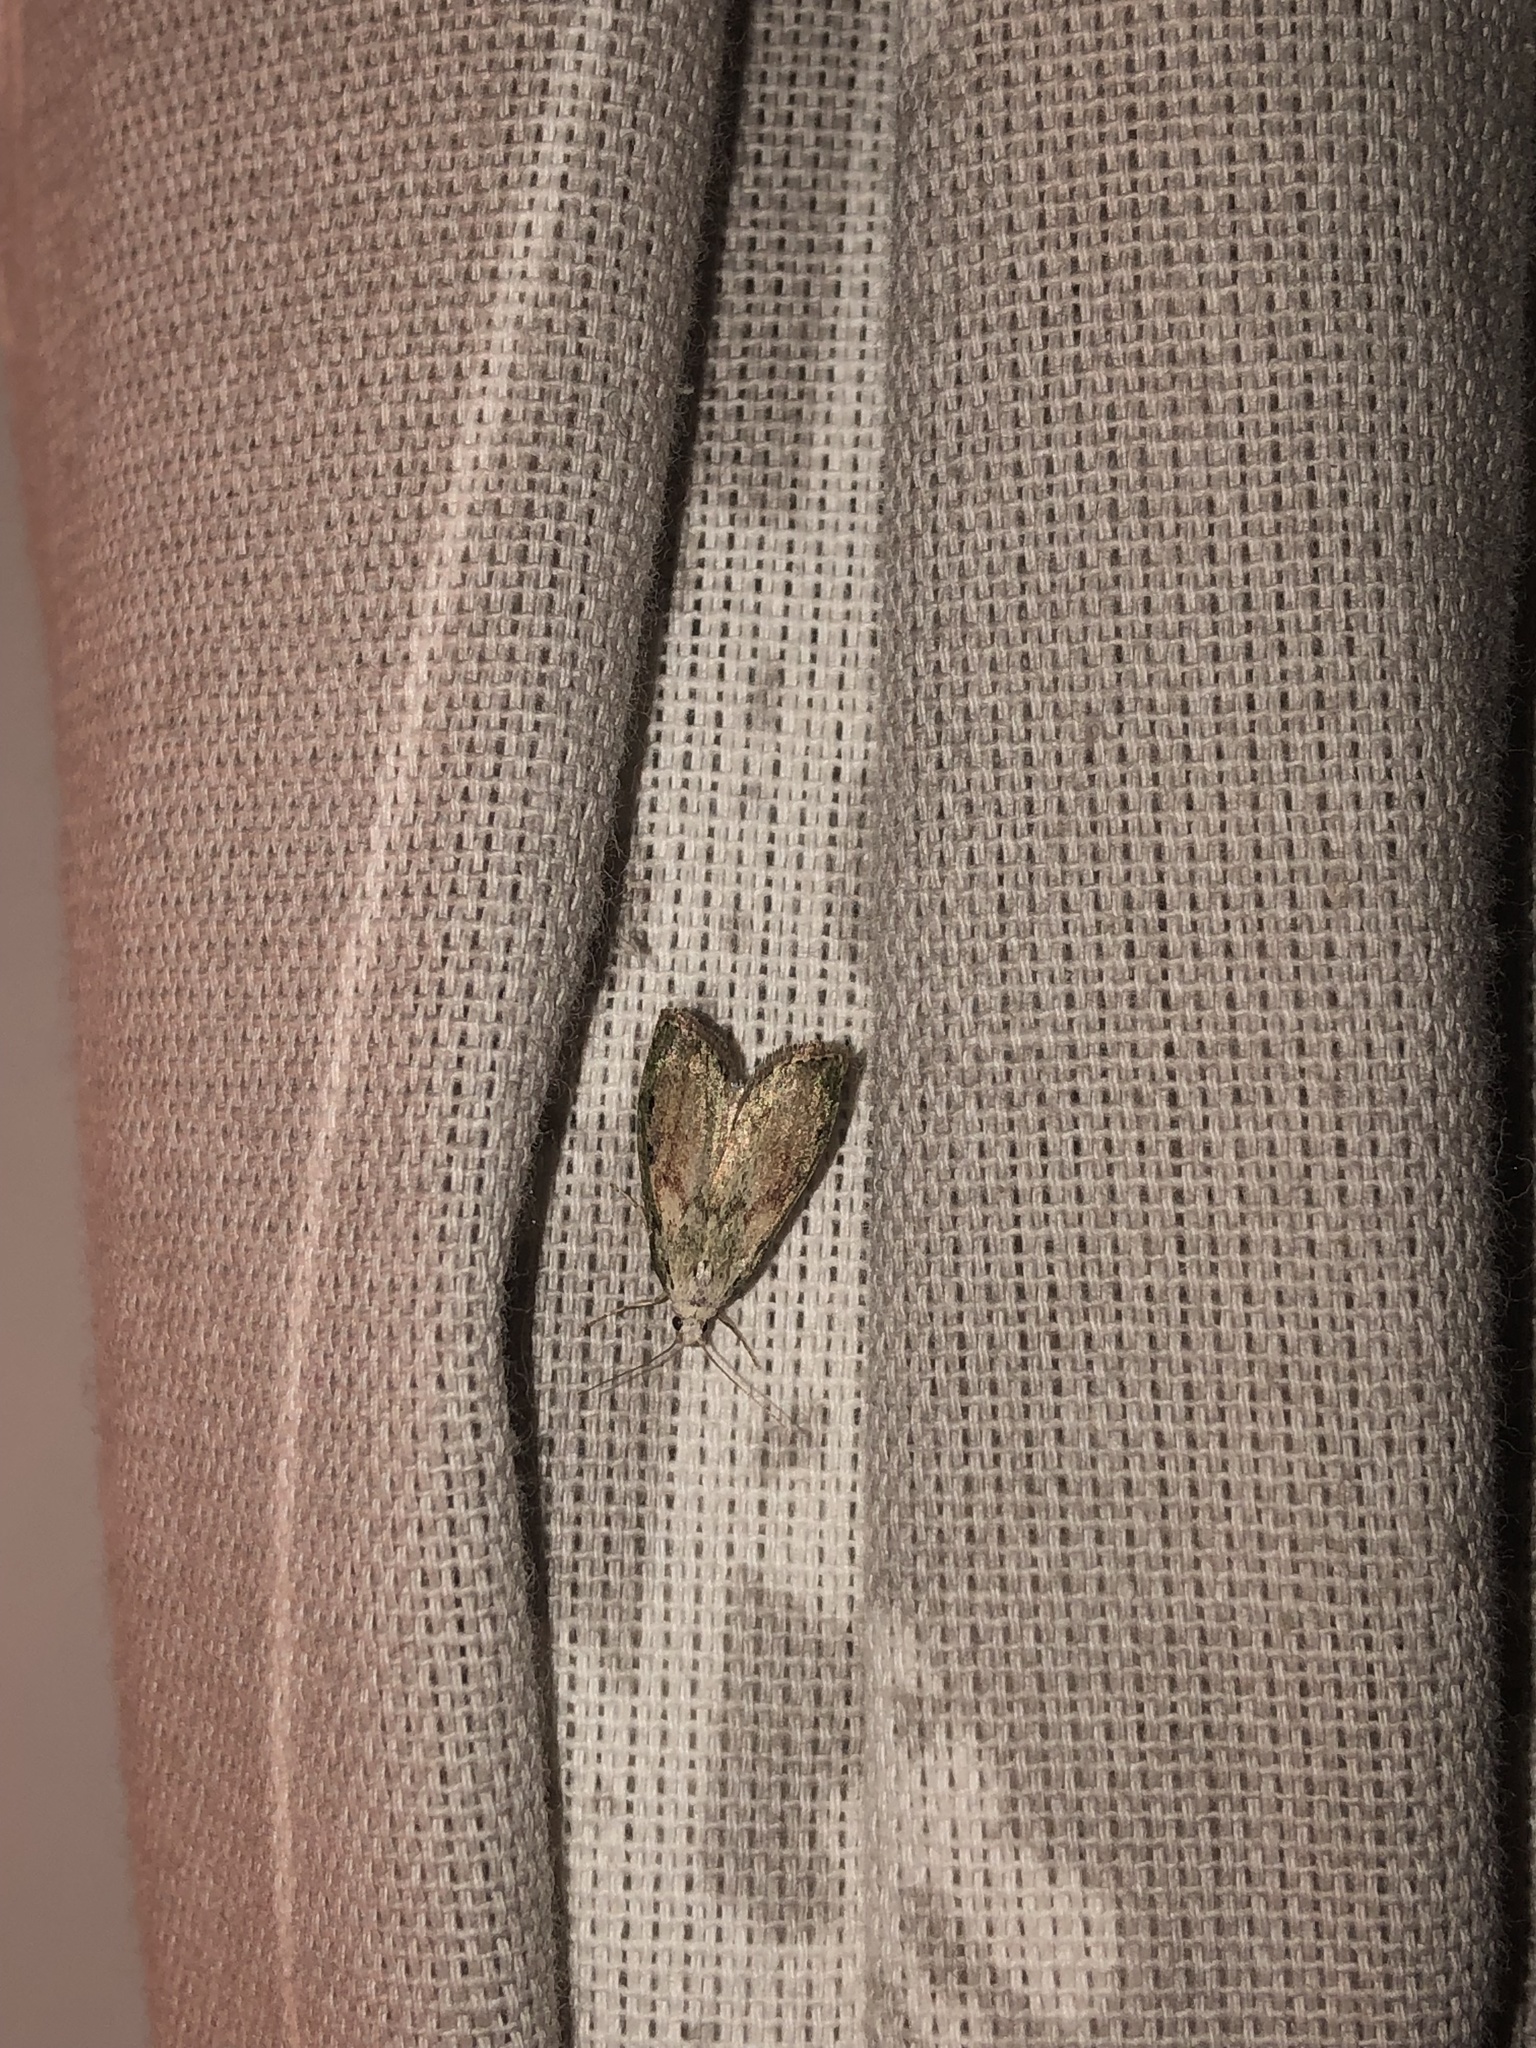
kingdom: Animalia
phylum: Arthropoda
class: Insecta
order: Lepidoptera
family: Pyralidae
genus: Aphomia
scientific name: Aphomia sociella
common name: Bee moth
